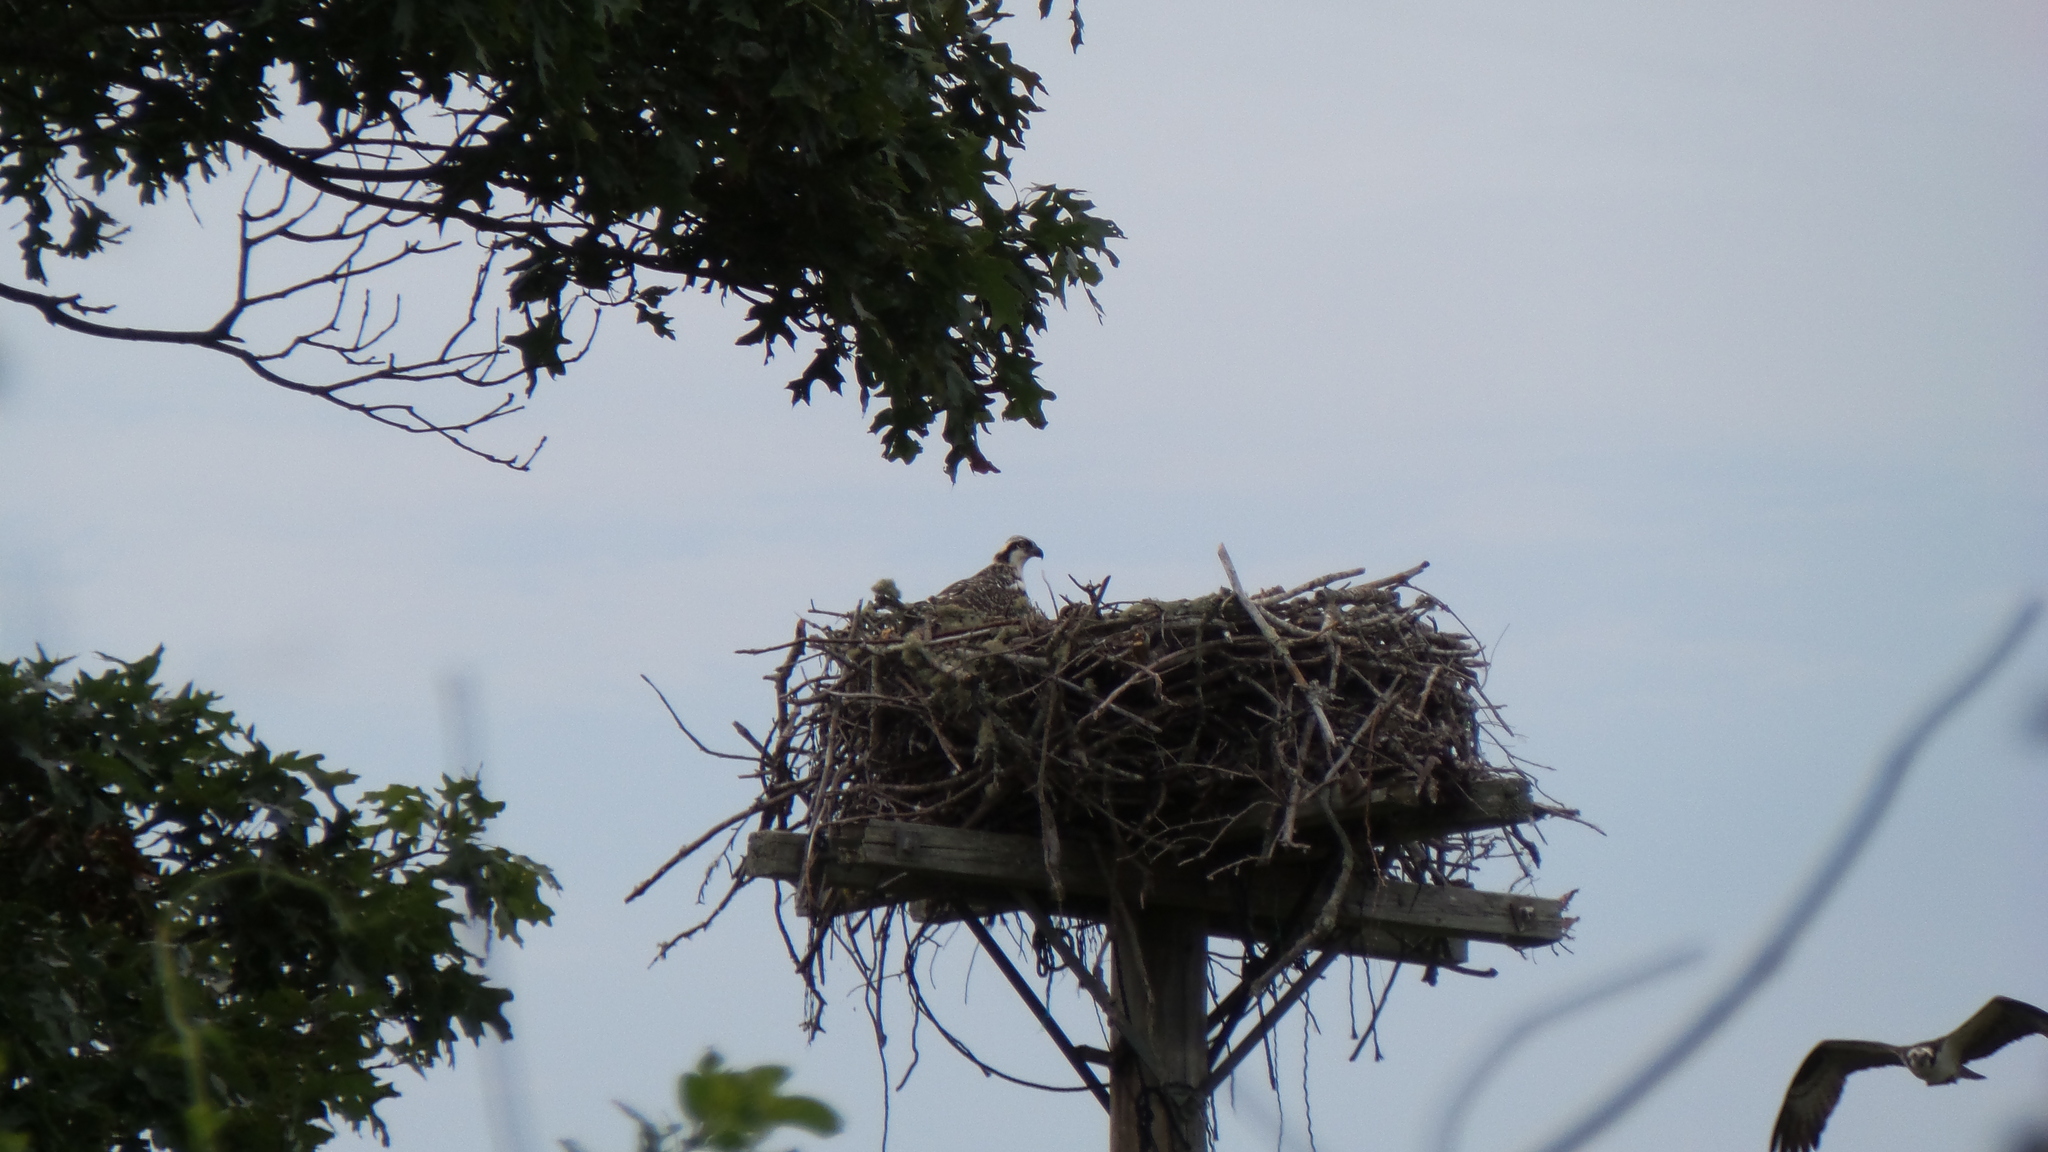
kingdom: Animalia
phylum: Chordata
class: Aves
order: Accipitriformes
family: Pandionidae
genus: Pandion
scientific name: Pandion haliaetus
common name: Osprey
